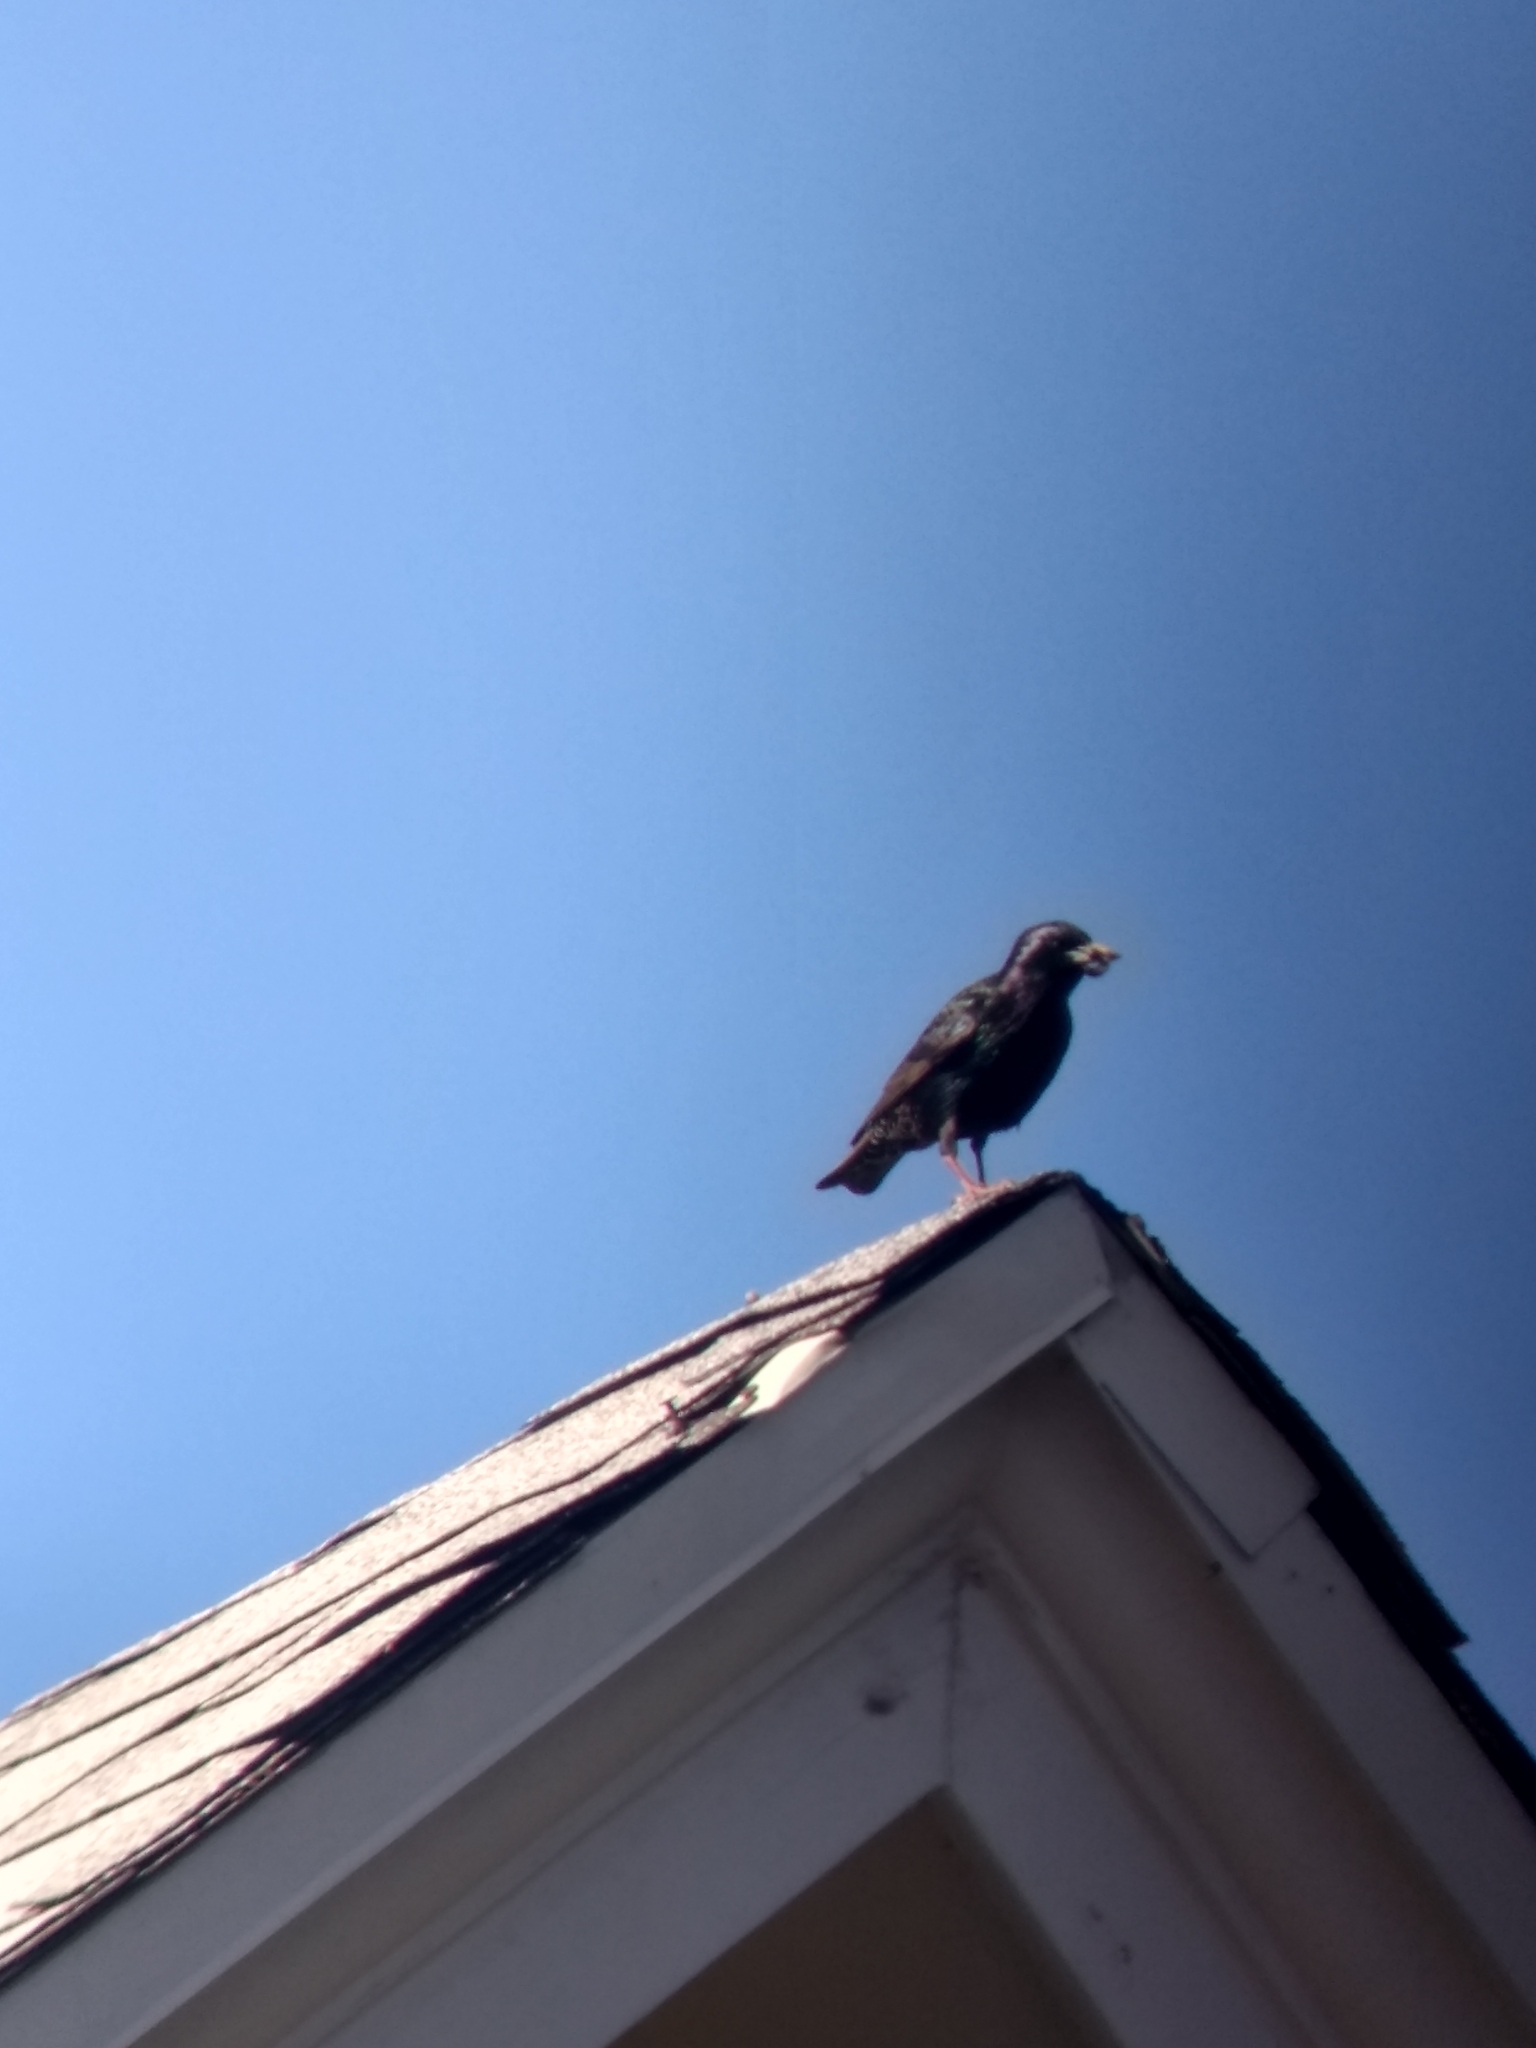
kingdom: Animalia
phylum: Chordata
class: Aves
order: Passeriformes
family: Sturnidae
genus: Sturnus
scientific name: Sturnus vulgaris
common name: Common starling
